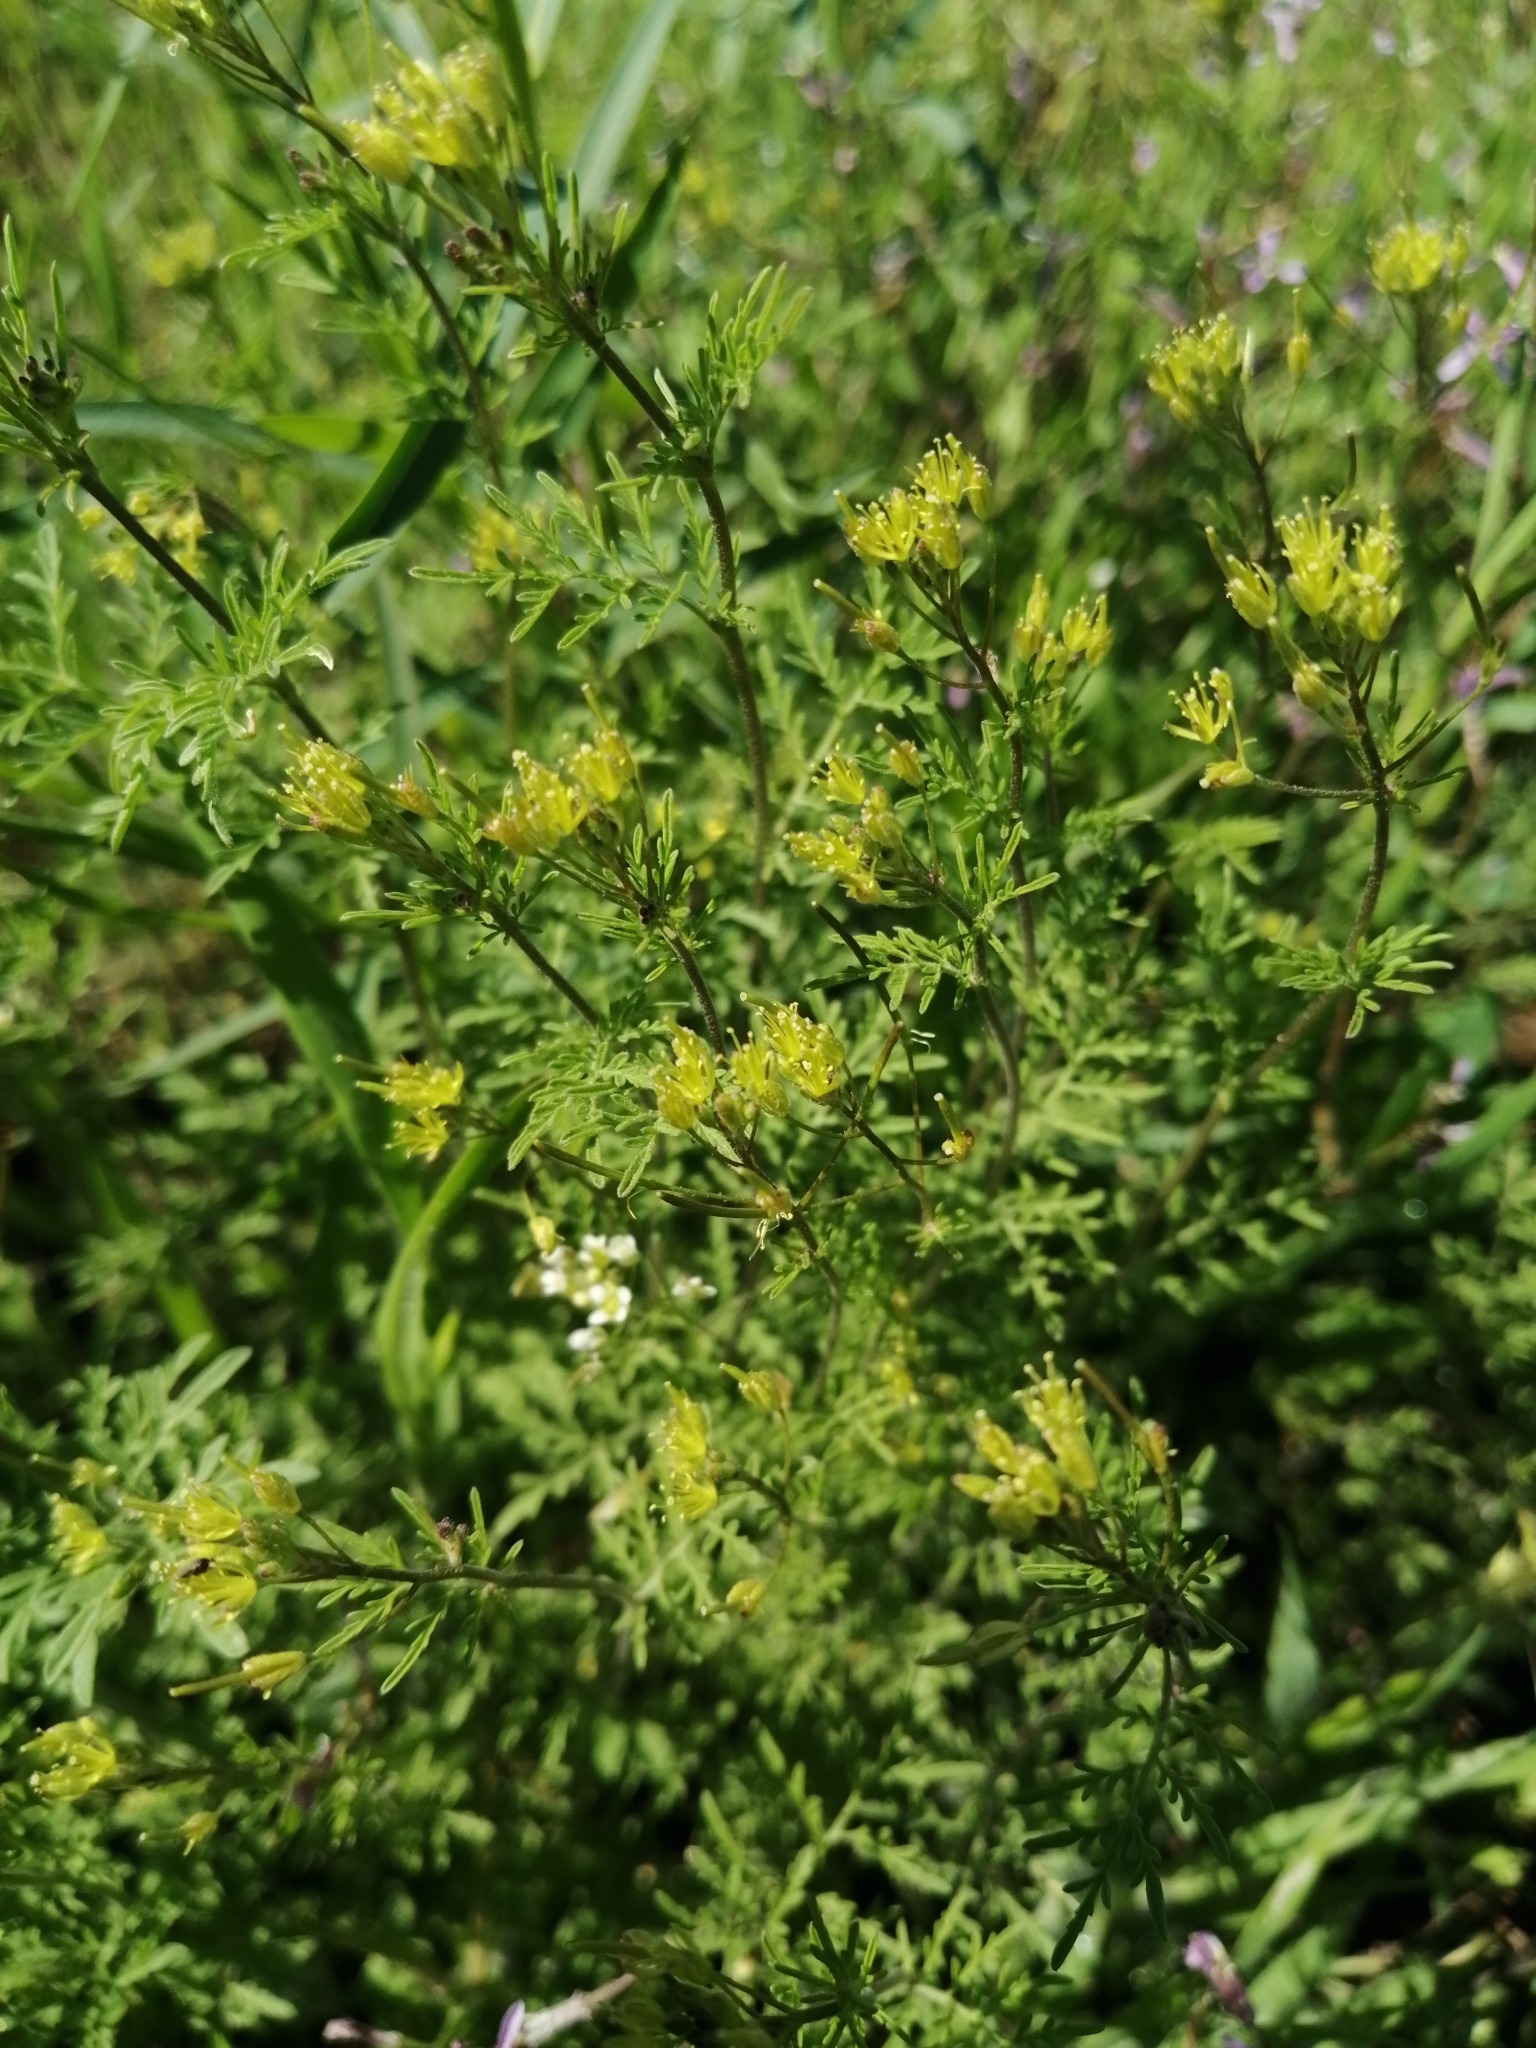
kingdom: Plantae
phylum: Tracheophyta
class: Magnoliopsida
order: Brassicales
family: Brassicaceae
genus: Descurainia
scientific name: Descurainia sophia
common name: Flixweed
